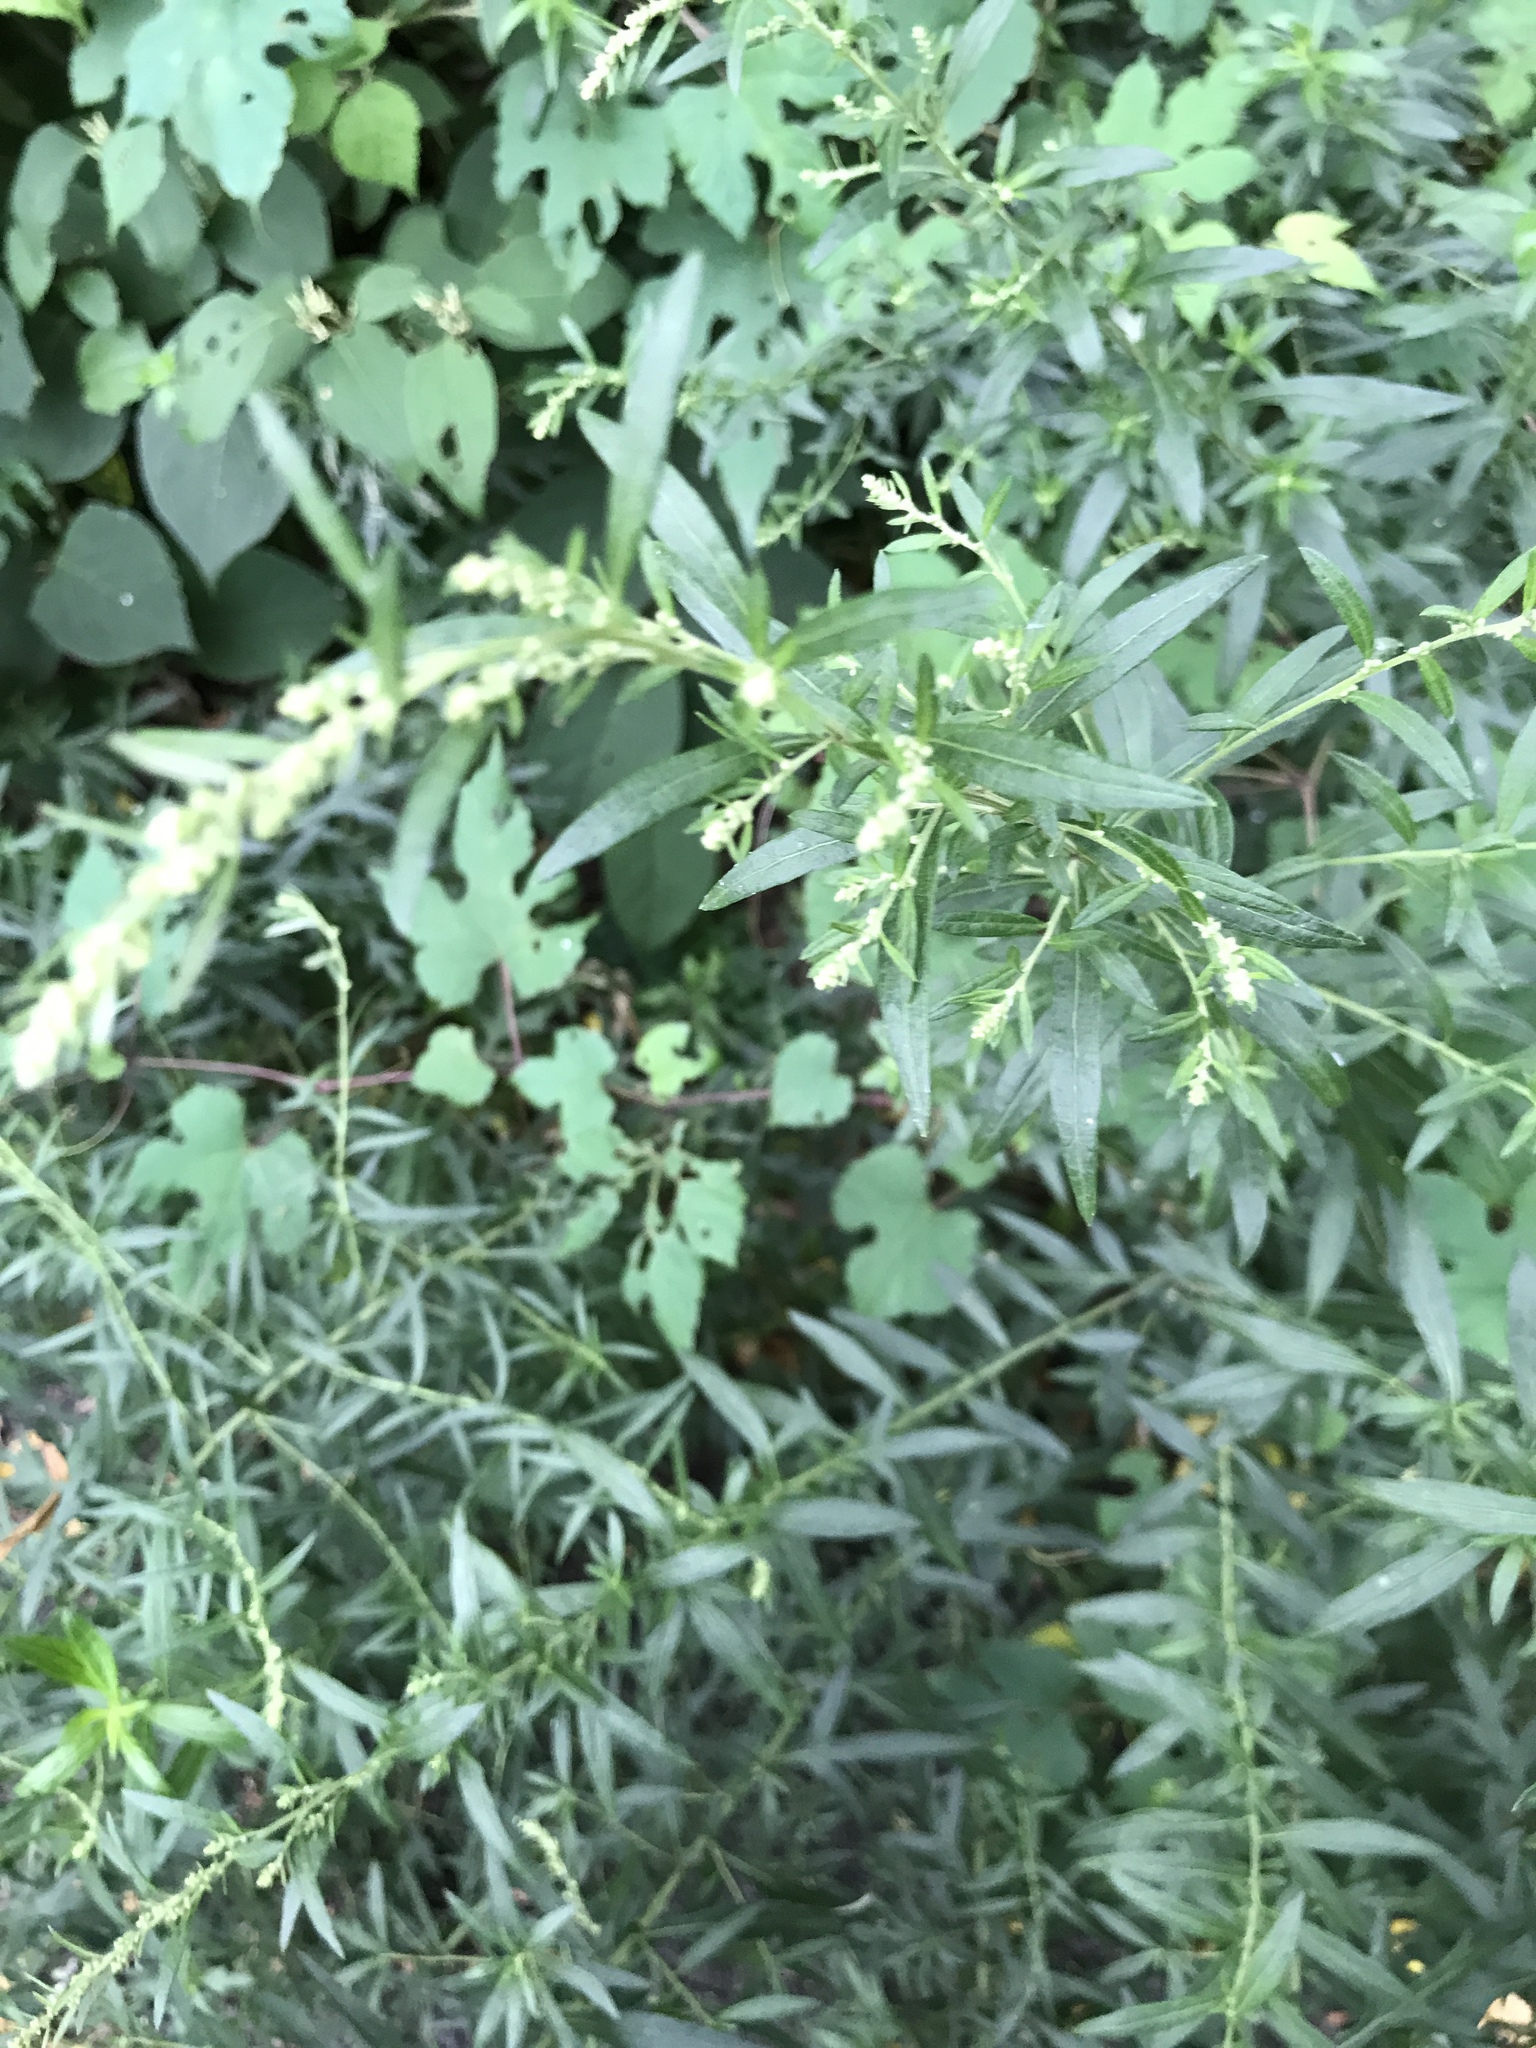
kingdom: Plantae
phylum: Tracheophyta
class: Magnoliopsida
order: Asterales
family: Asteraceae
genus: Artemisia
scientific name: Artemisia vulgaris
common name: Mugwort
